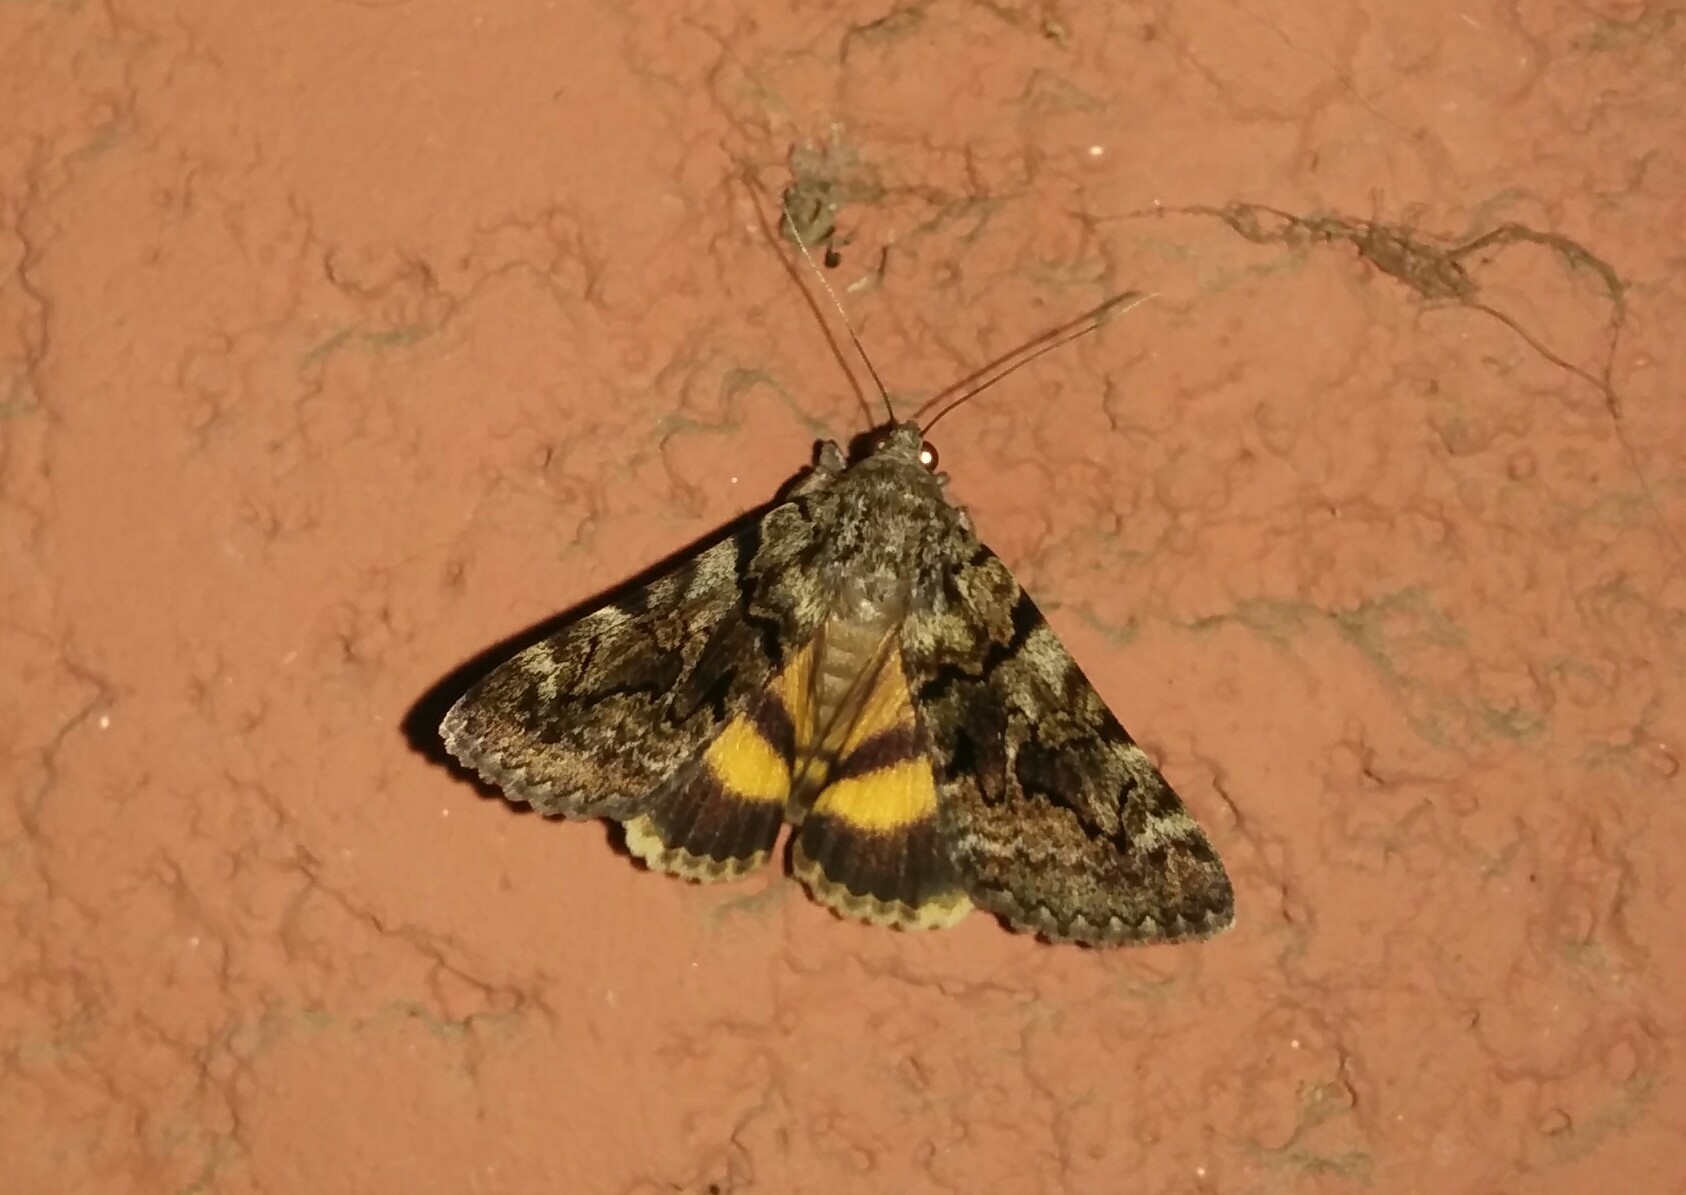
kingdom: Animalia
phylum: Arthropoda
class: Insecta
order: Lepidoptera
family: Erebidae
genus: Catocala
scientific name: Catocala nymphagoga
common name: Oak yellow underwing
